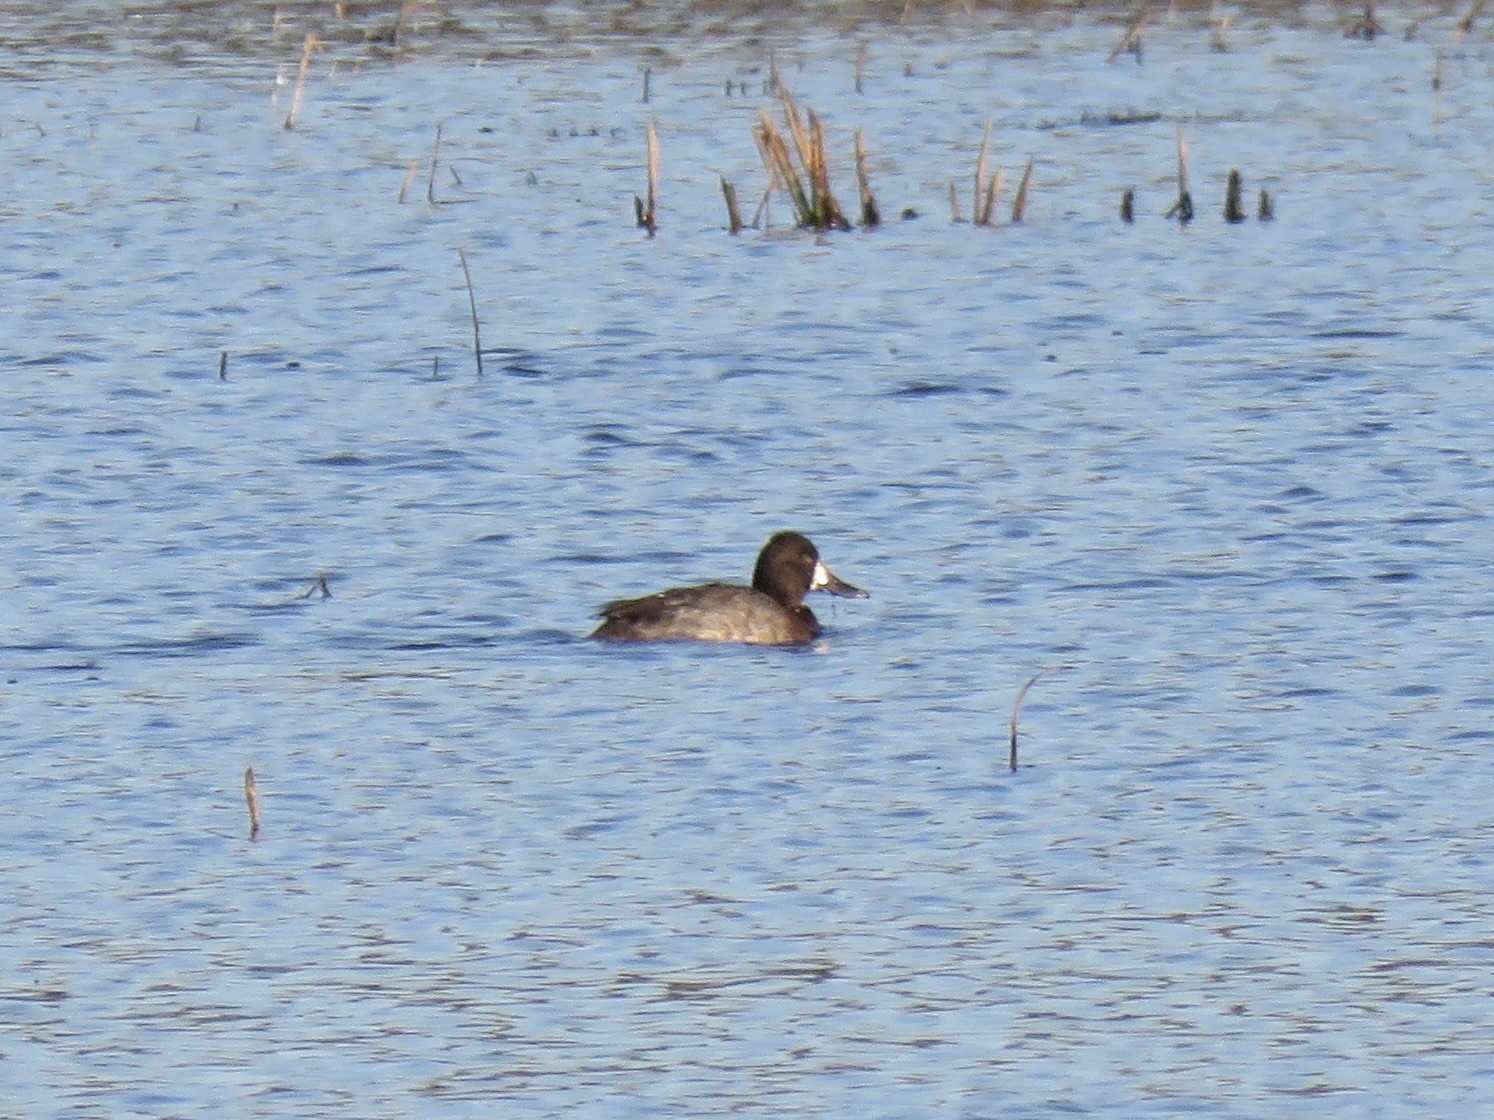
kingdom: Animalia
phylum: Chordata
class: Aves
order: Anseriformes
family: Anatidae
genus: Aythya
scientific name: Aythya affinis
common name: Lesser scaup
